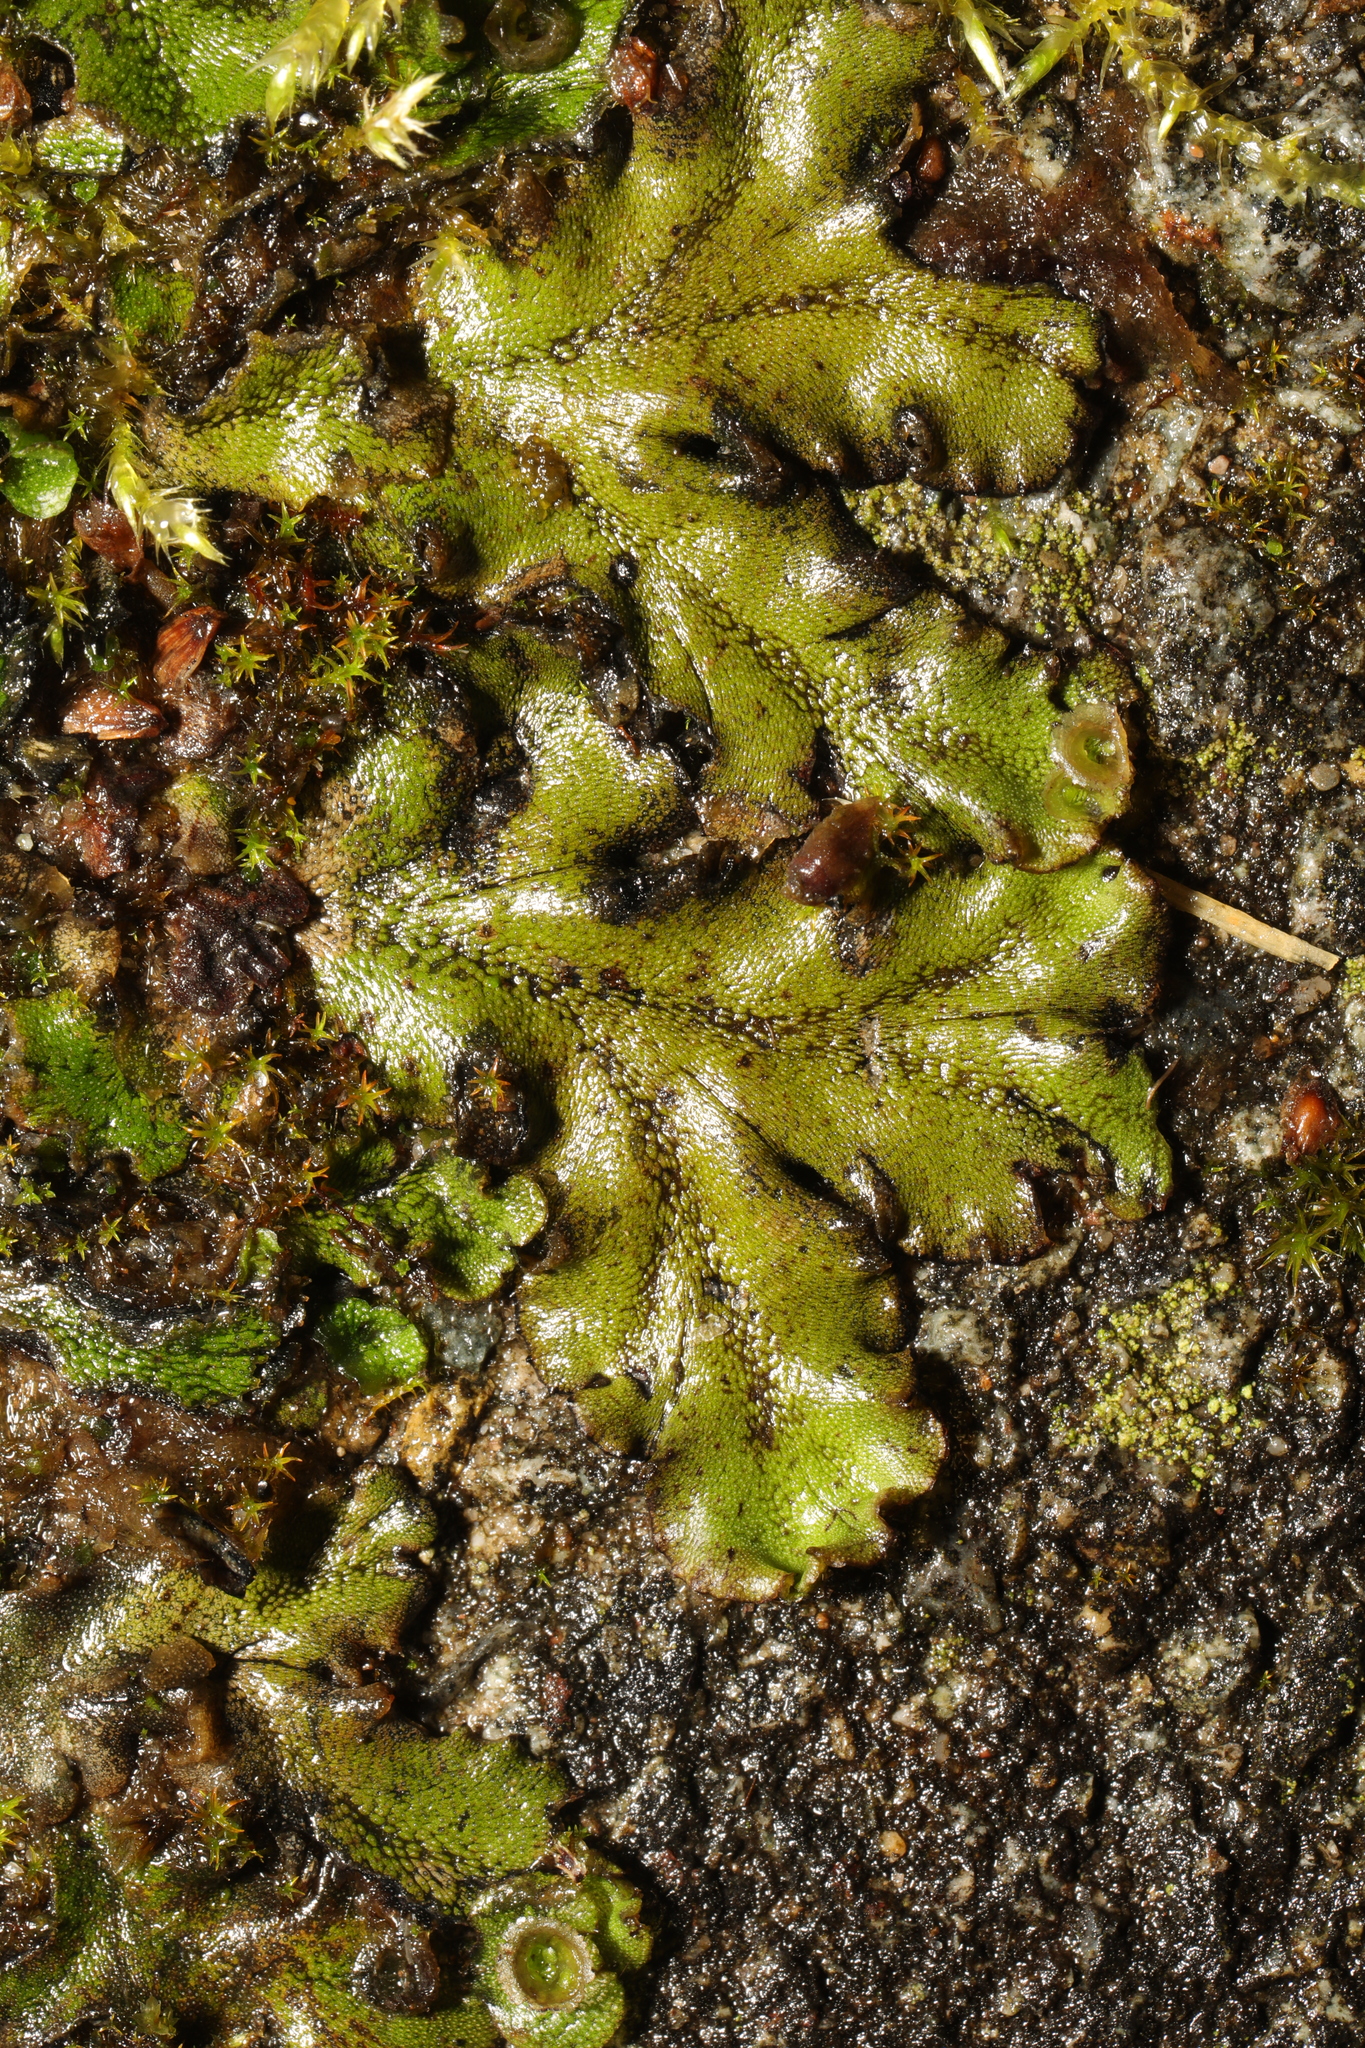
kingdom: Plantae
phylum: Marchantiophyta
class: Marchantiopsida
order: Marchantiales
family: Marchantiaceae
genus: Marchantia
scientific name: Marchantia polymorpha
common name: Common liverwort
